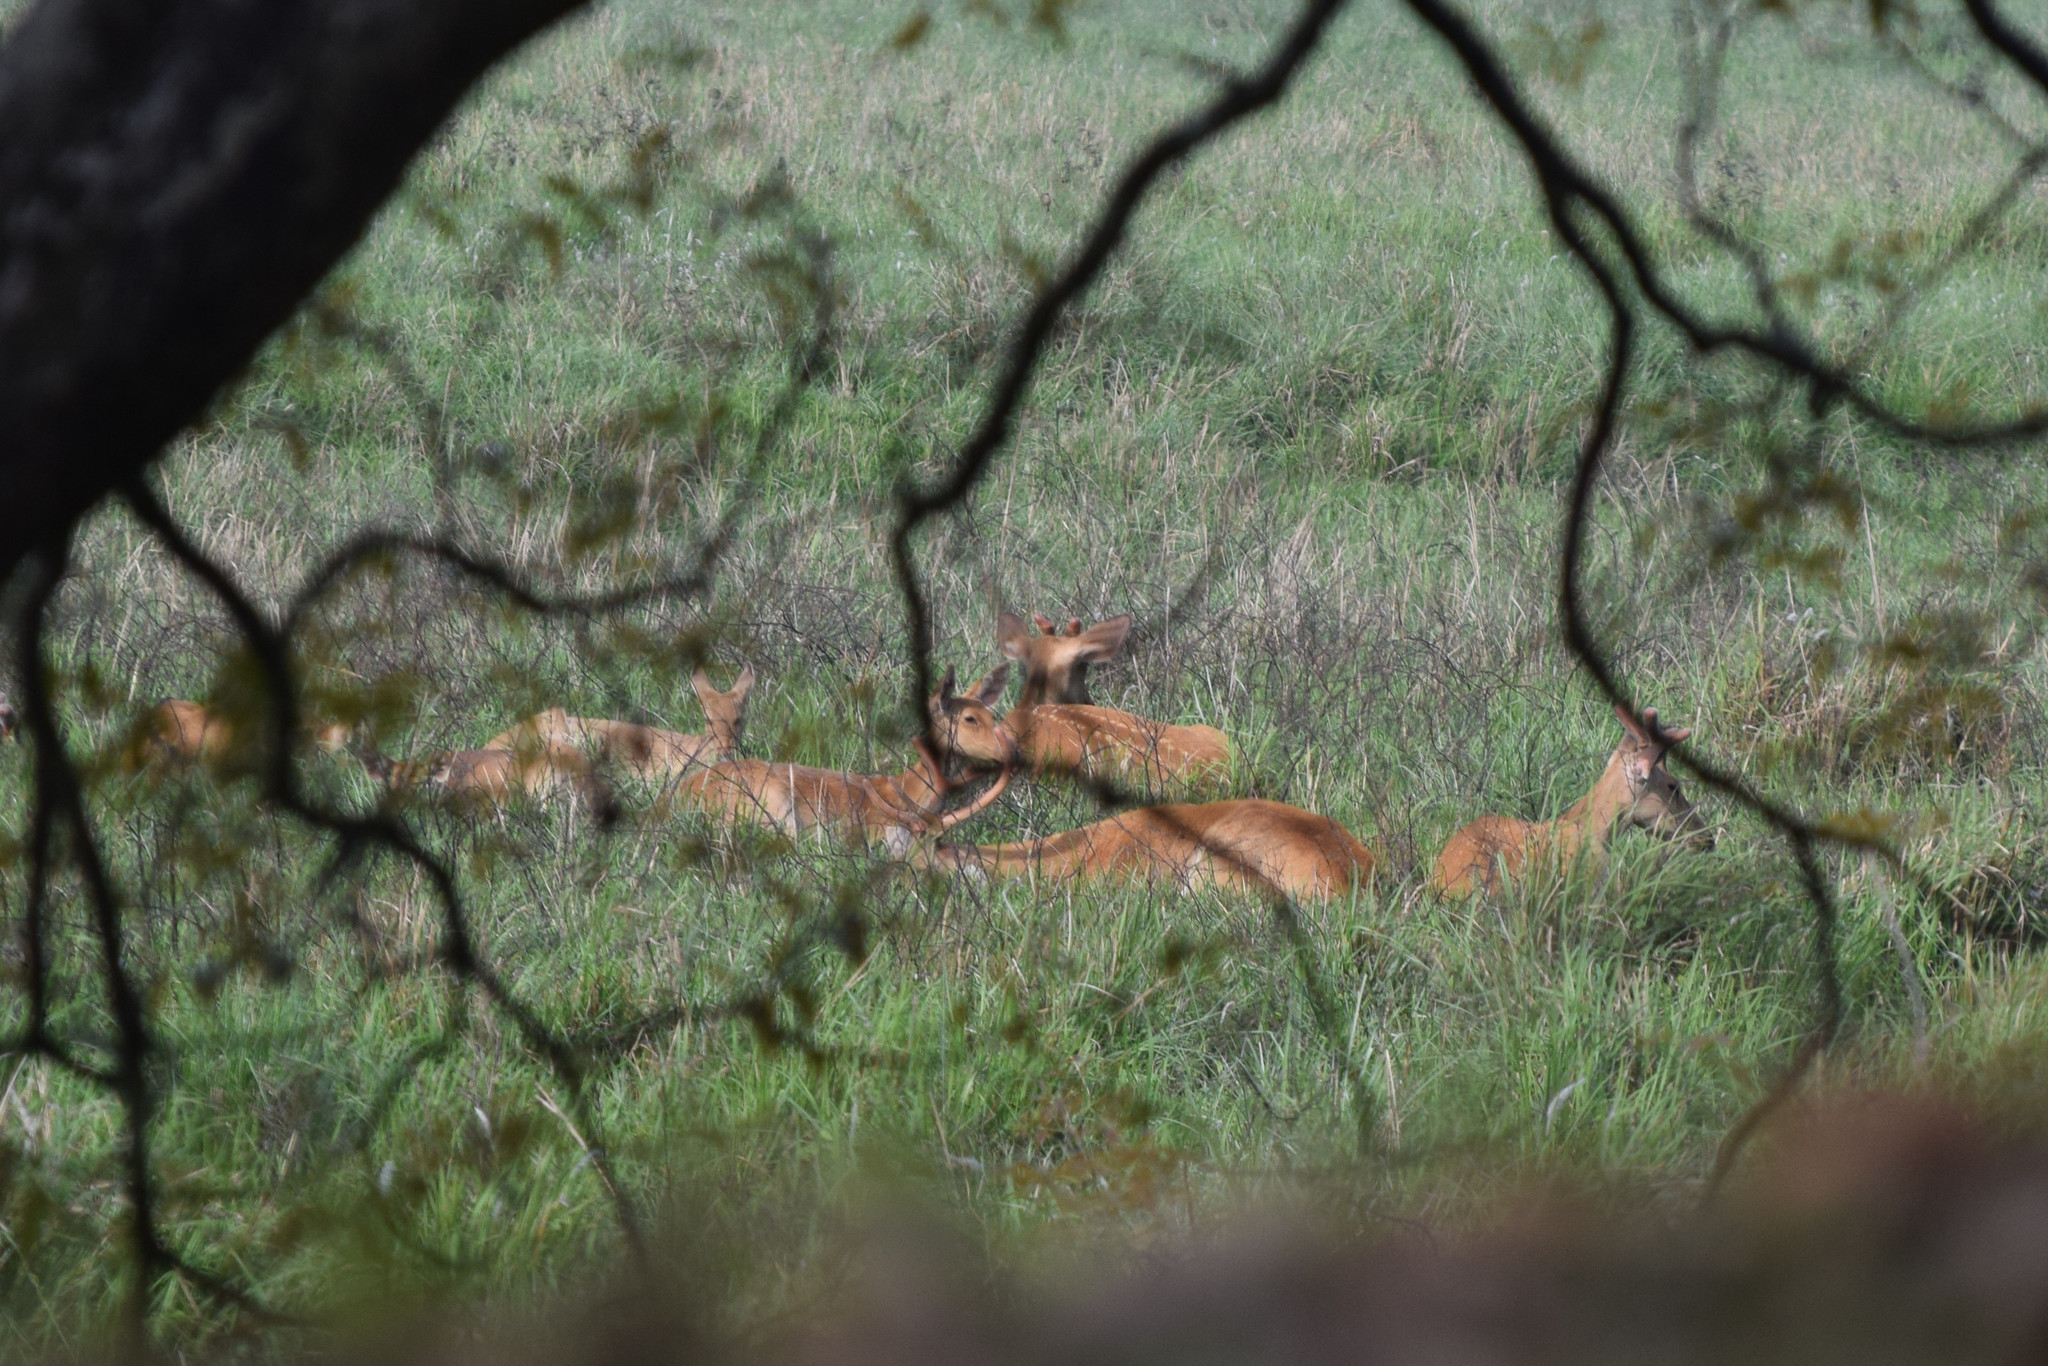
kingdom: Animalia
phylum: Chordata
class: Mammalia
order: Artiodactyla
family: Cervidae
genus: Rucervus
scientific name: Rucervus duvaucelii
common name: Barasingha
